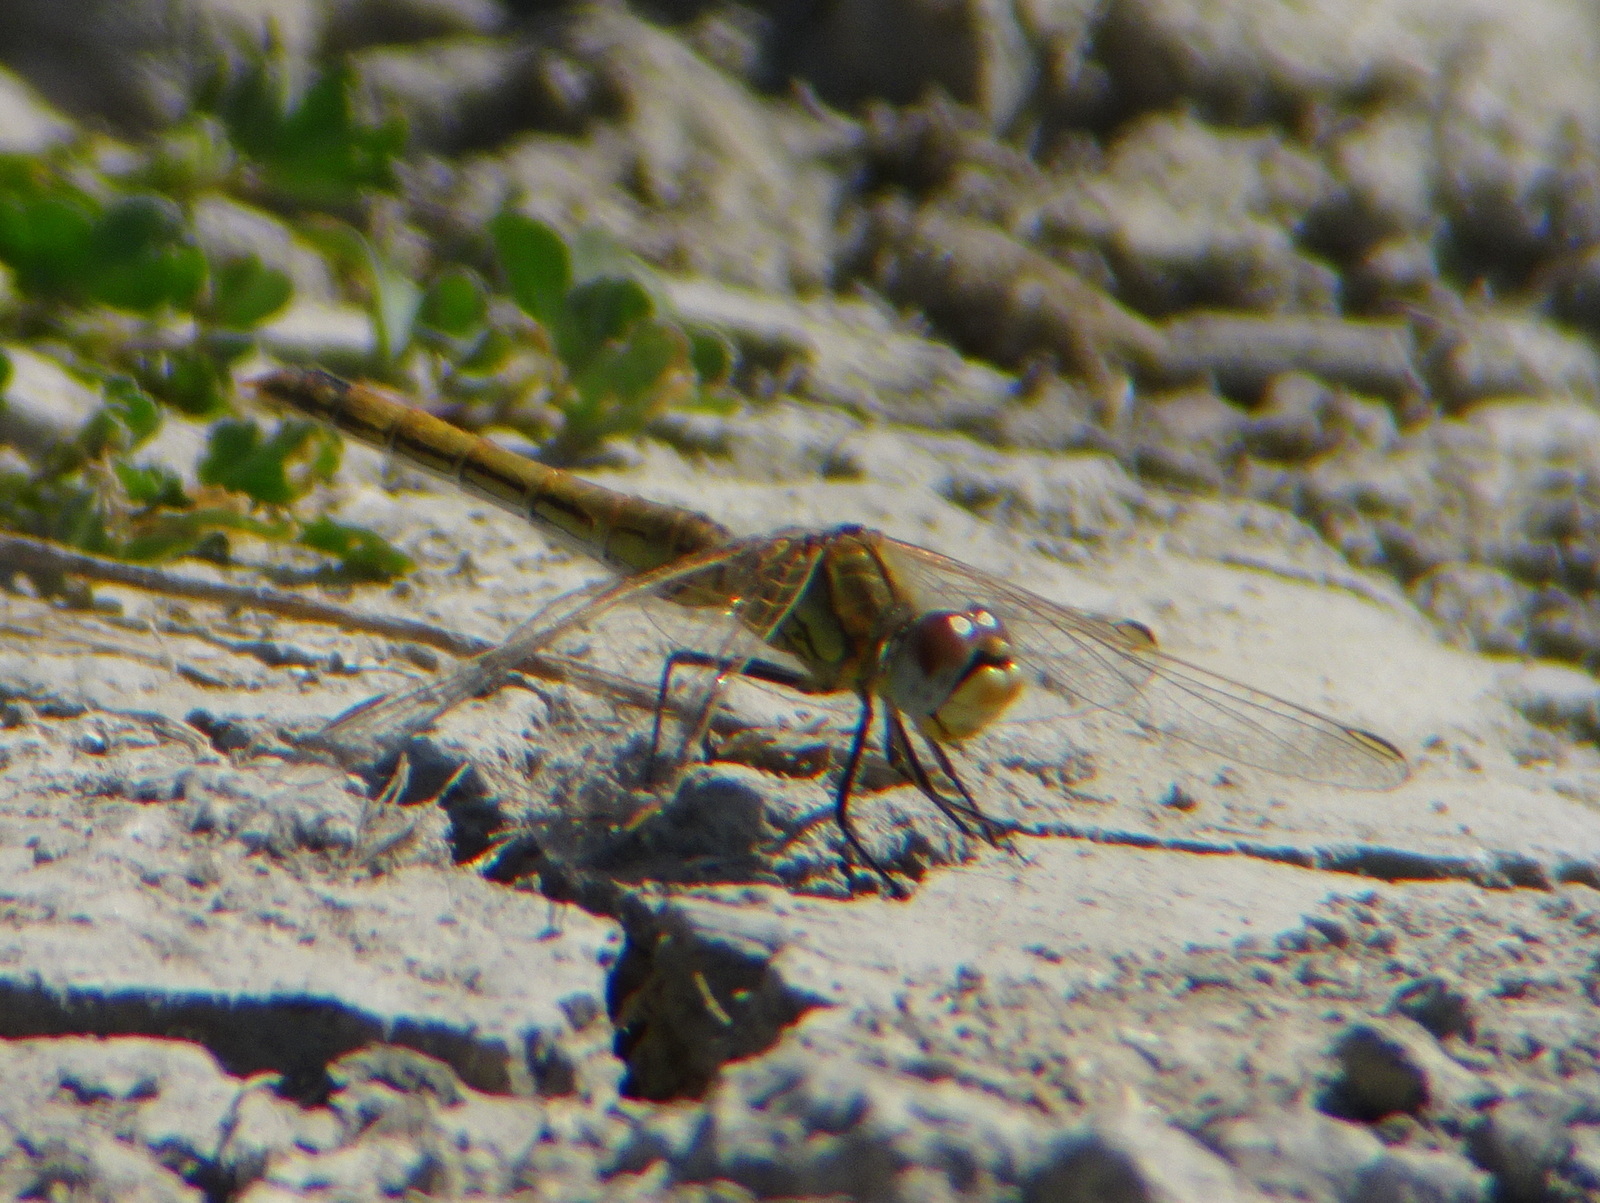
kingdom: Animalia
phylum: Arthropoda
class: Insecta
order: Odonata
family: Libellulidae
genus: Sympetrum
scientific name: Sympetrum fonscolombii
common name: Red-veined darter
